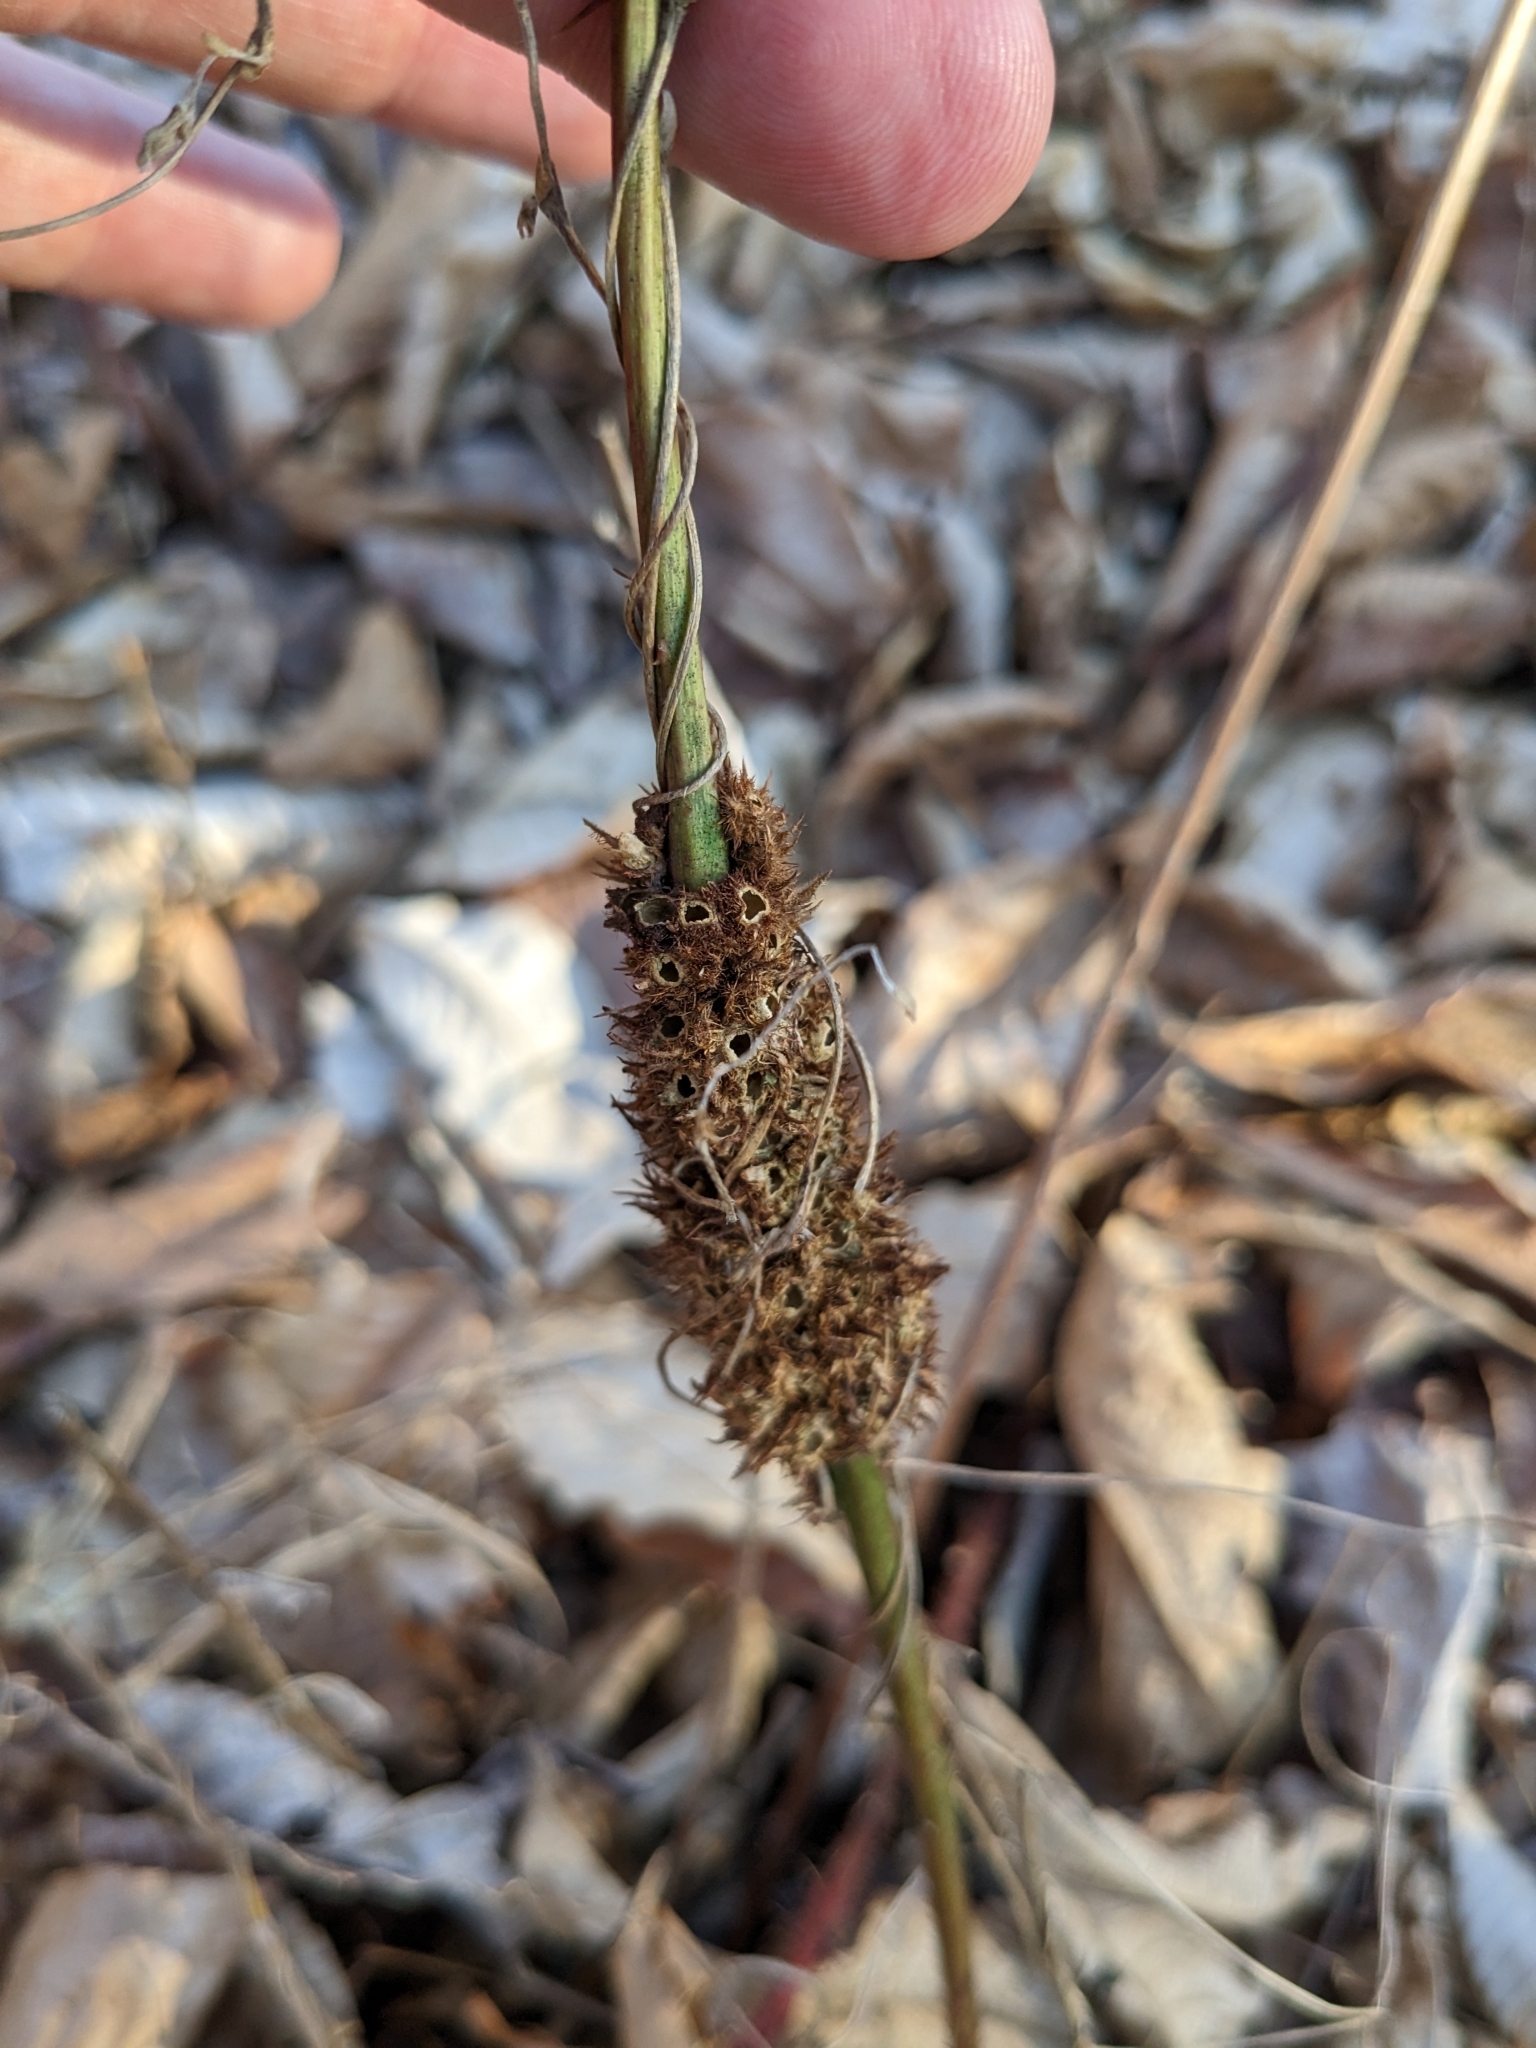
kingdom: Animalia
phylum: Arthropoda
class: Insecta
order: Hymenoptera
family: Cynipidae
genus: Diastrophus
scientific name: Diastrophus
